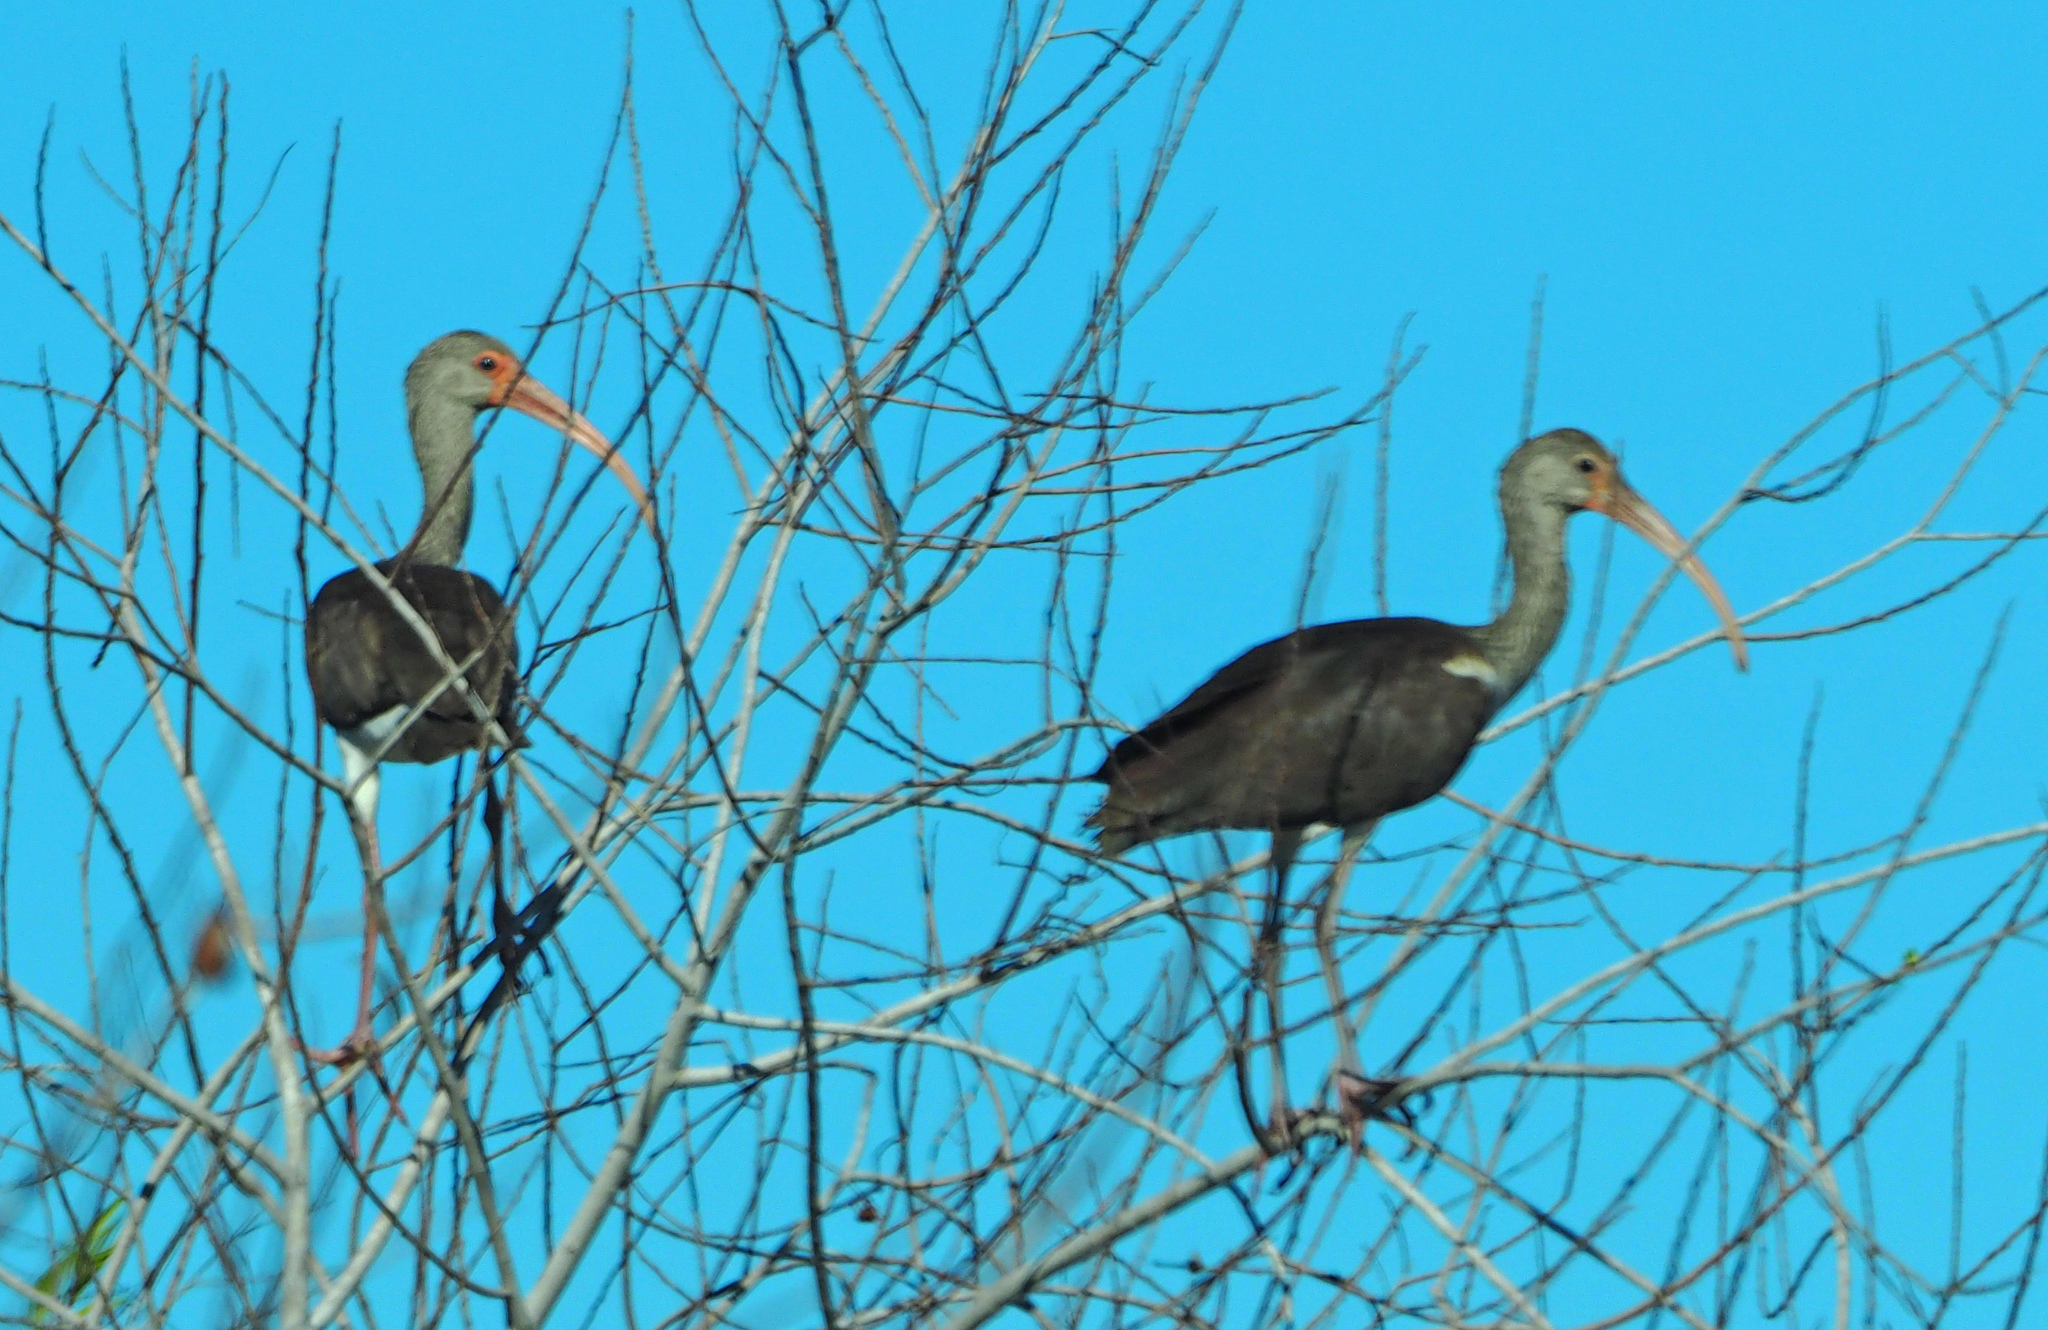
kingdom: Animalia
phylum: Chordata
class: Aves
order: Pelecaniformes
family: Threskiornithidae
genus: Eudocimus
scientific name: Eudocimus albus
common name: White ibis
